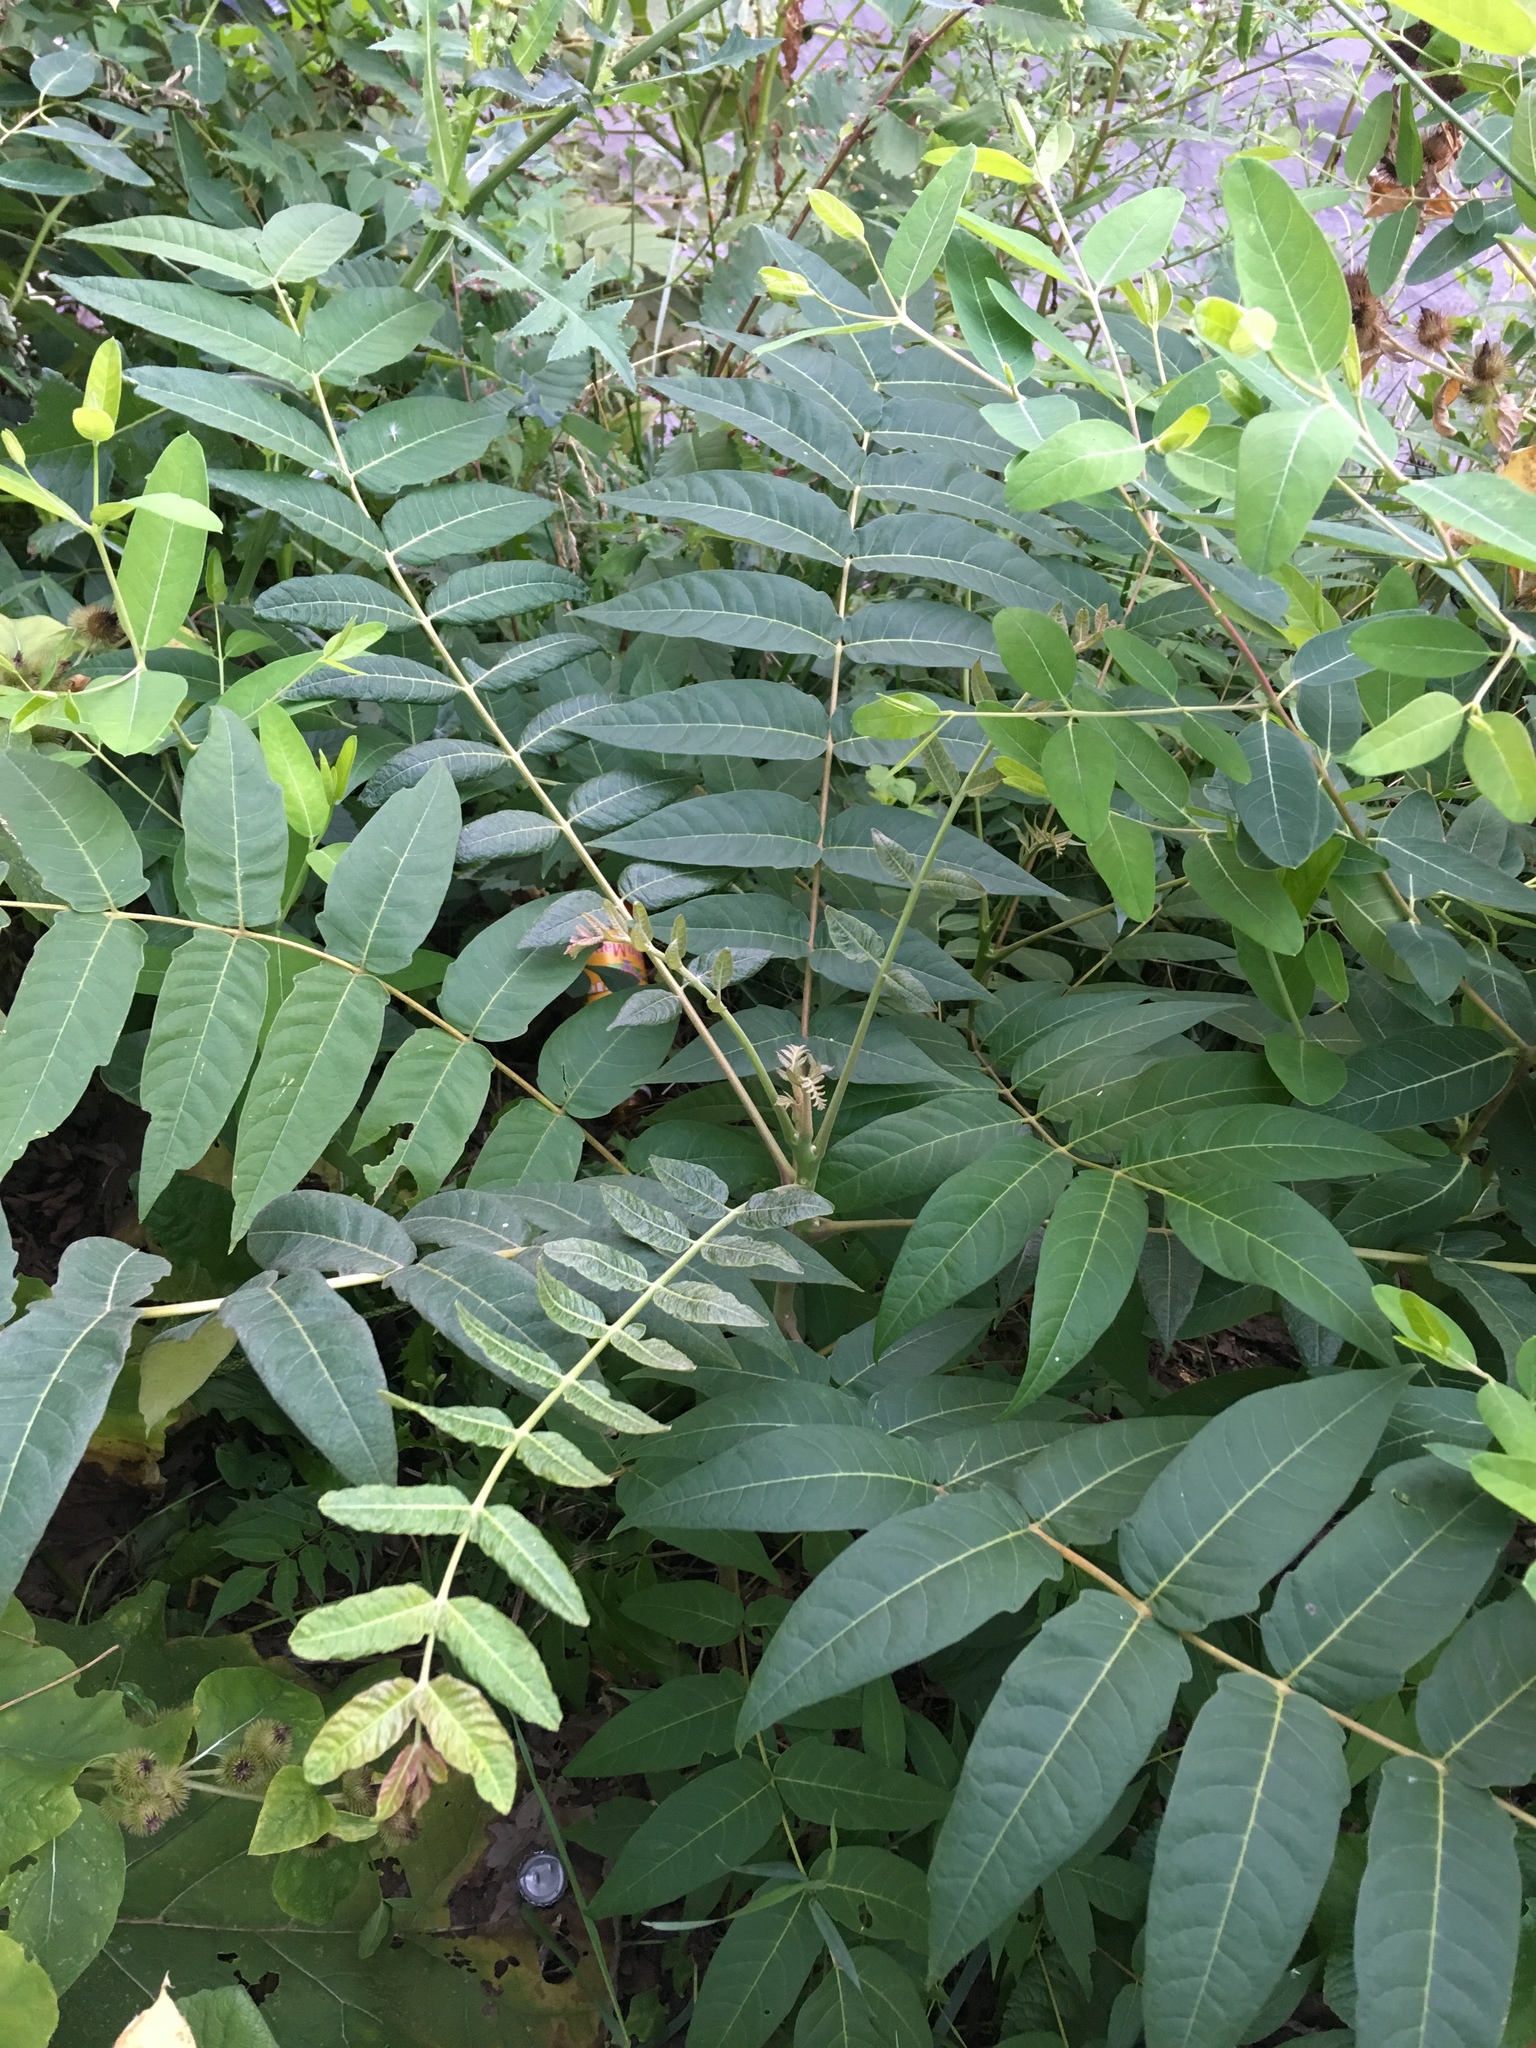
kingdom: Plantae
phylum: Tracheophyta
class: Magnoliopsida
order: Sapindales
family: Simaroubaceae
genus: Ailanthus
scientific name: Ailanthus altissima
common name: Tree-of-heaven
